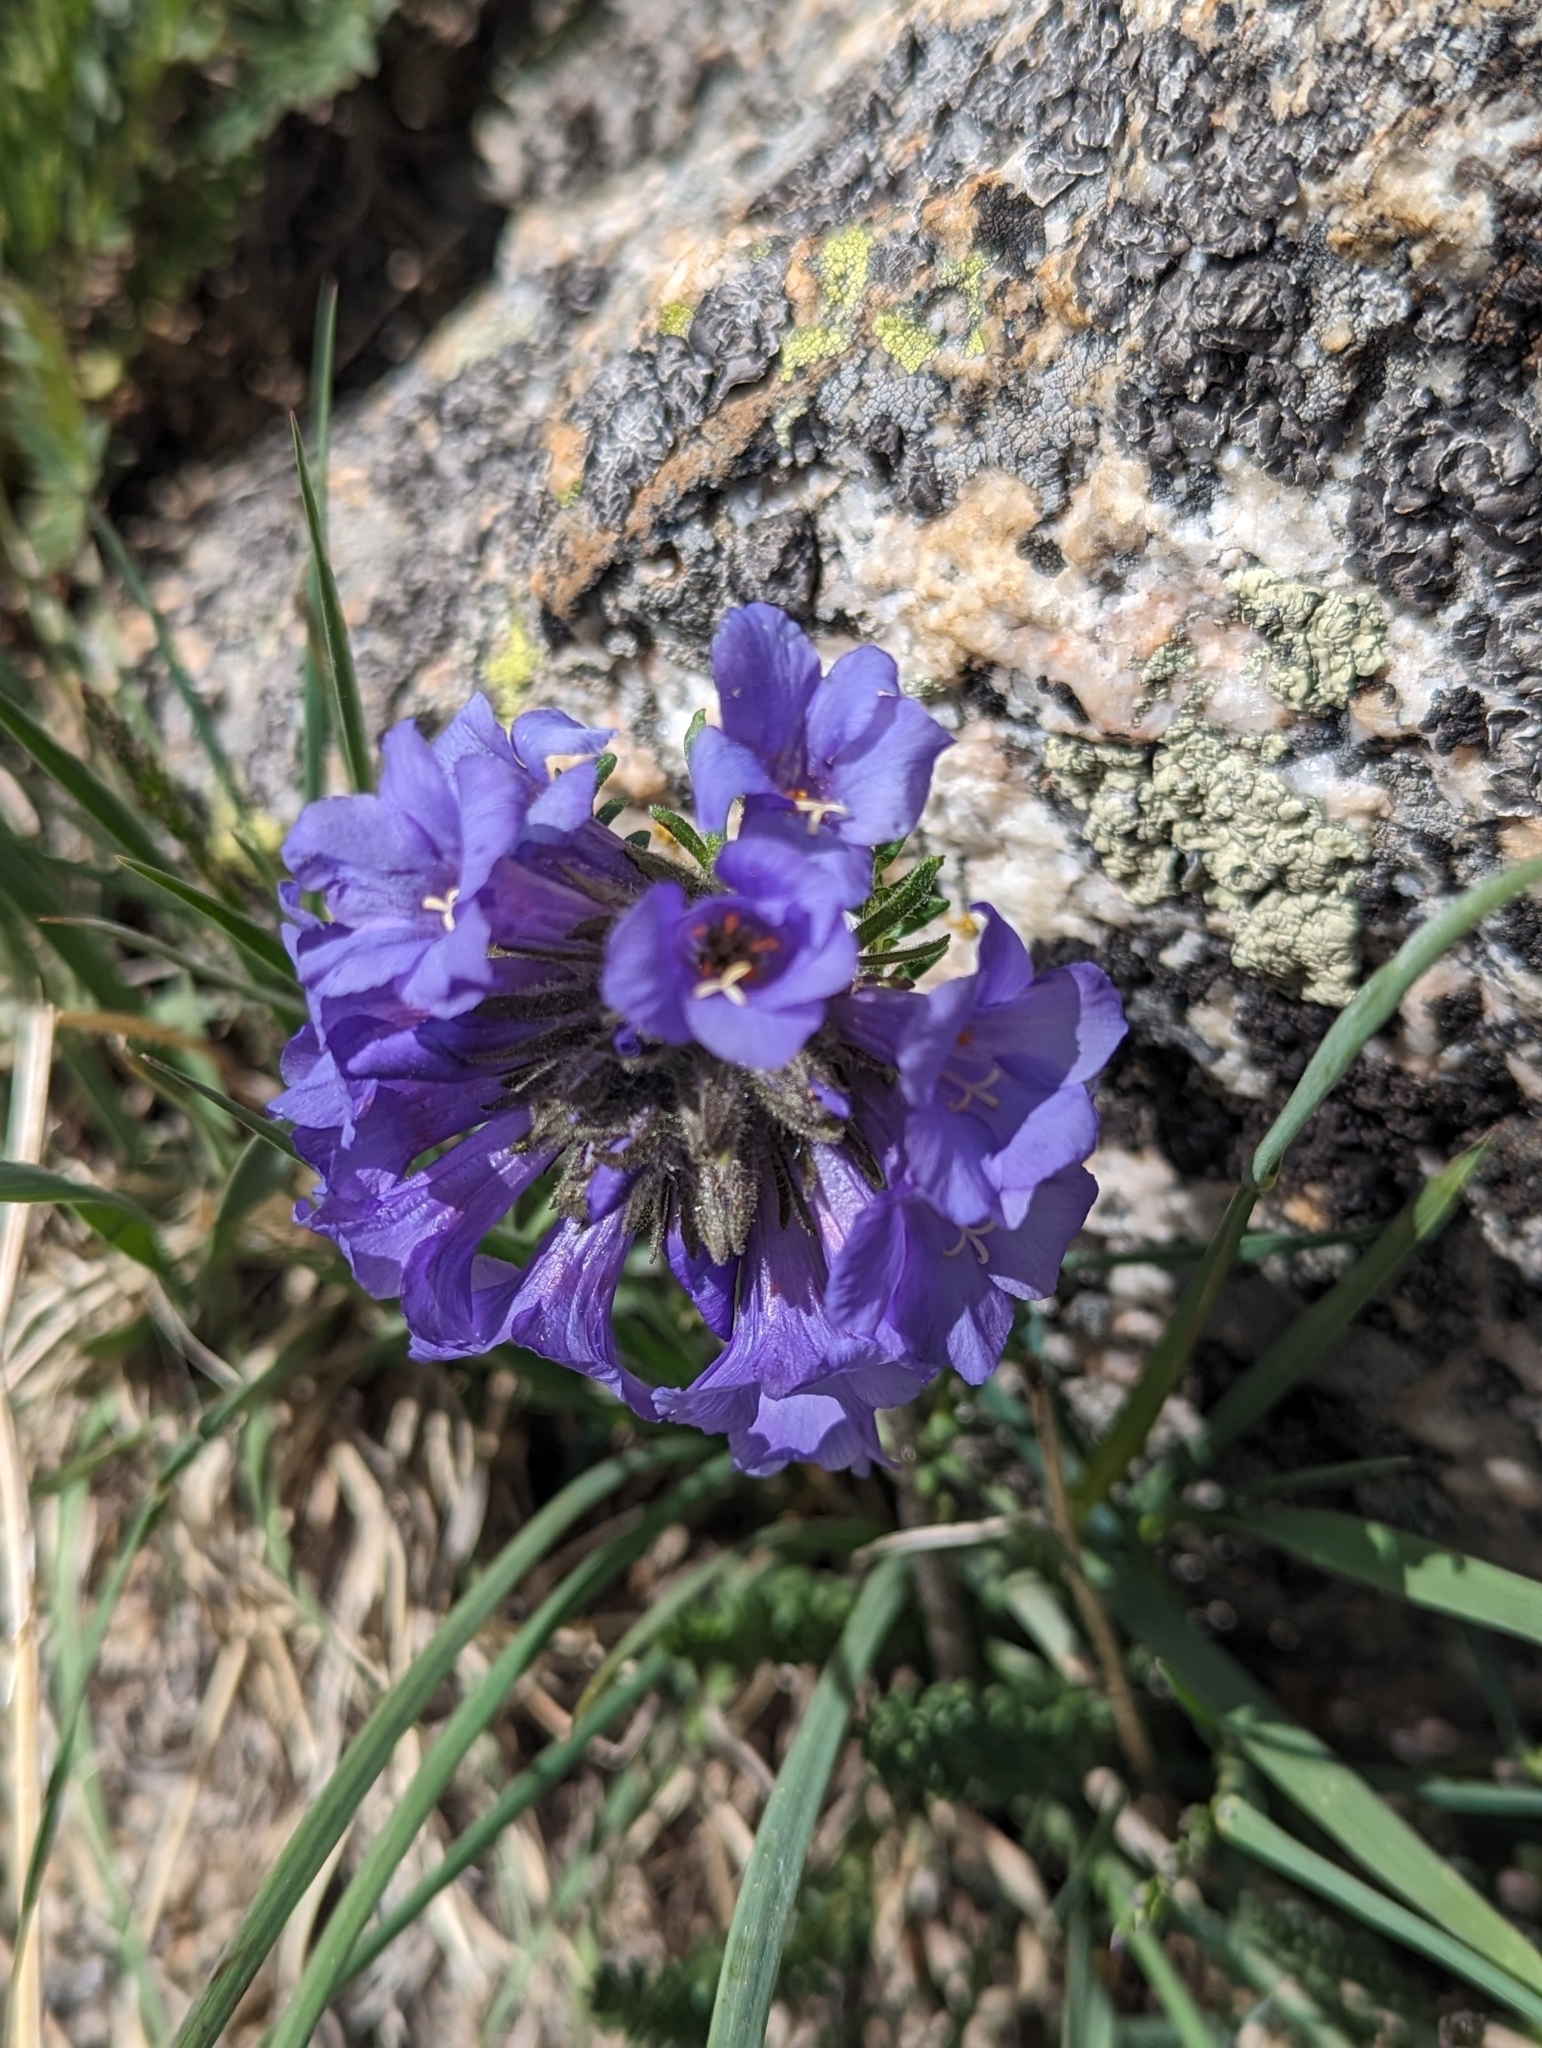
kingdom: Plantae
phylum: Tracheophyta
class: Magnoliopsida
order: Ericales
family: Polemoniaceae
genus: Polemonium
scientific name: Polemonium viscosum
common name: Skunk jacob's-ladder
